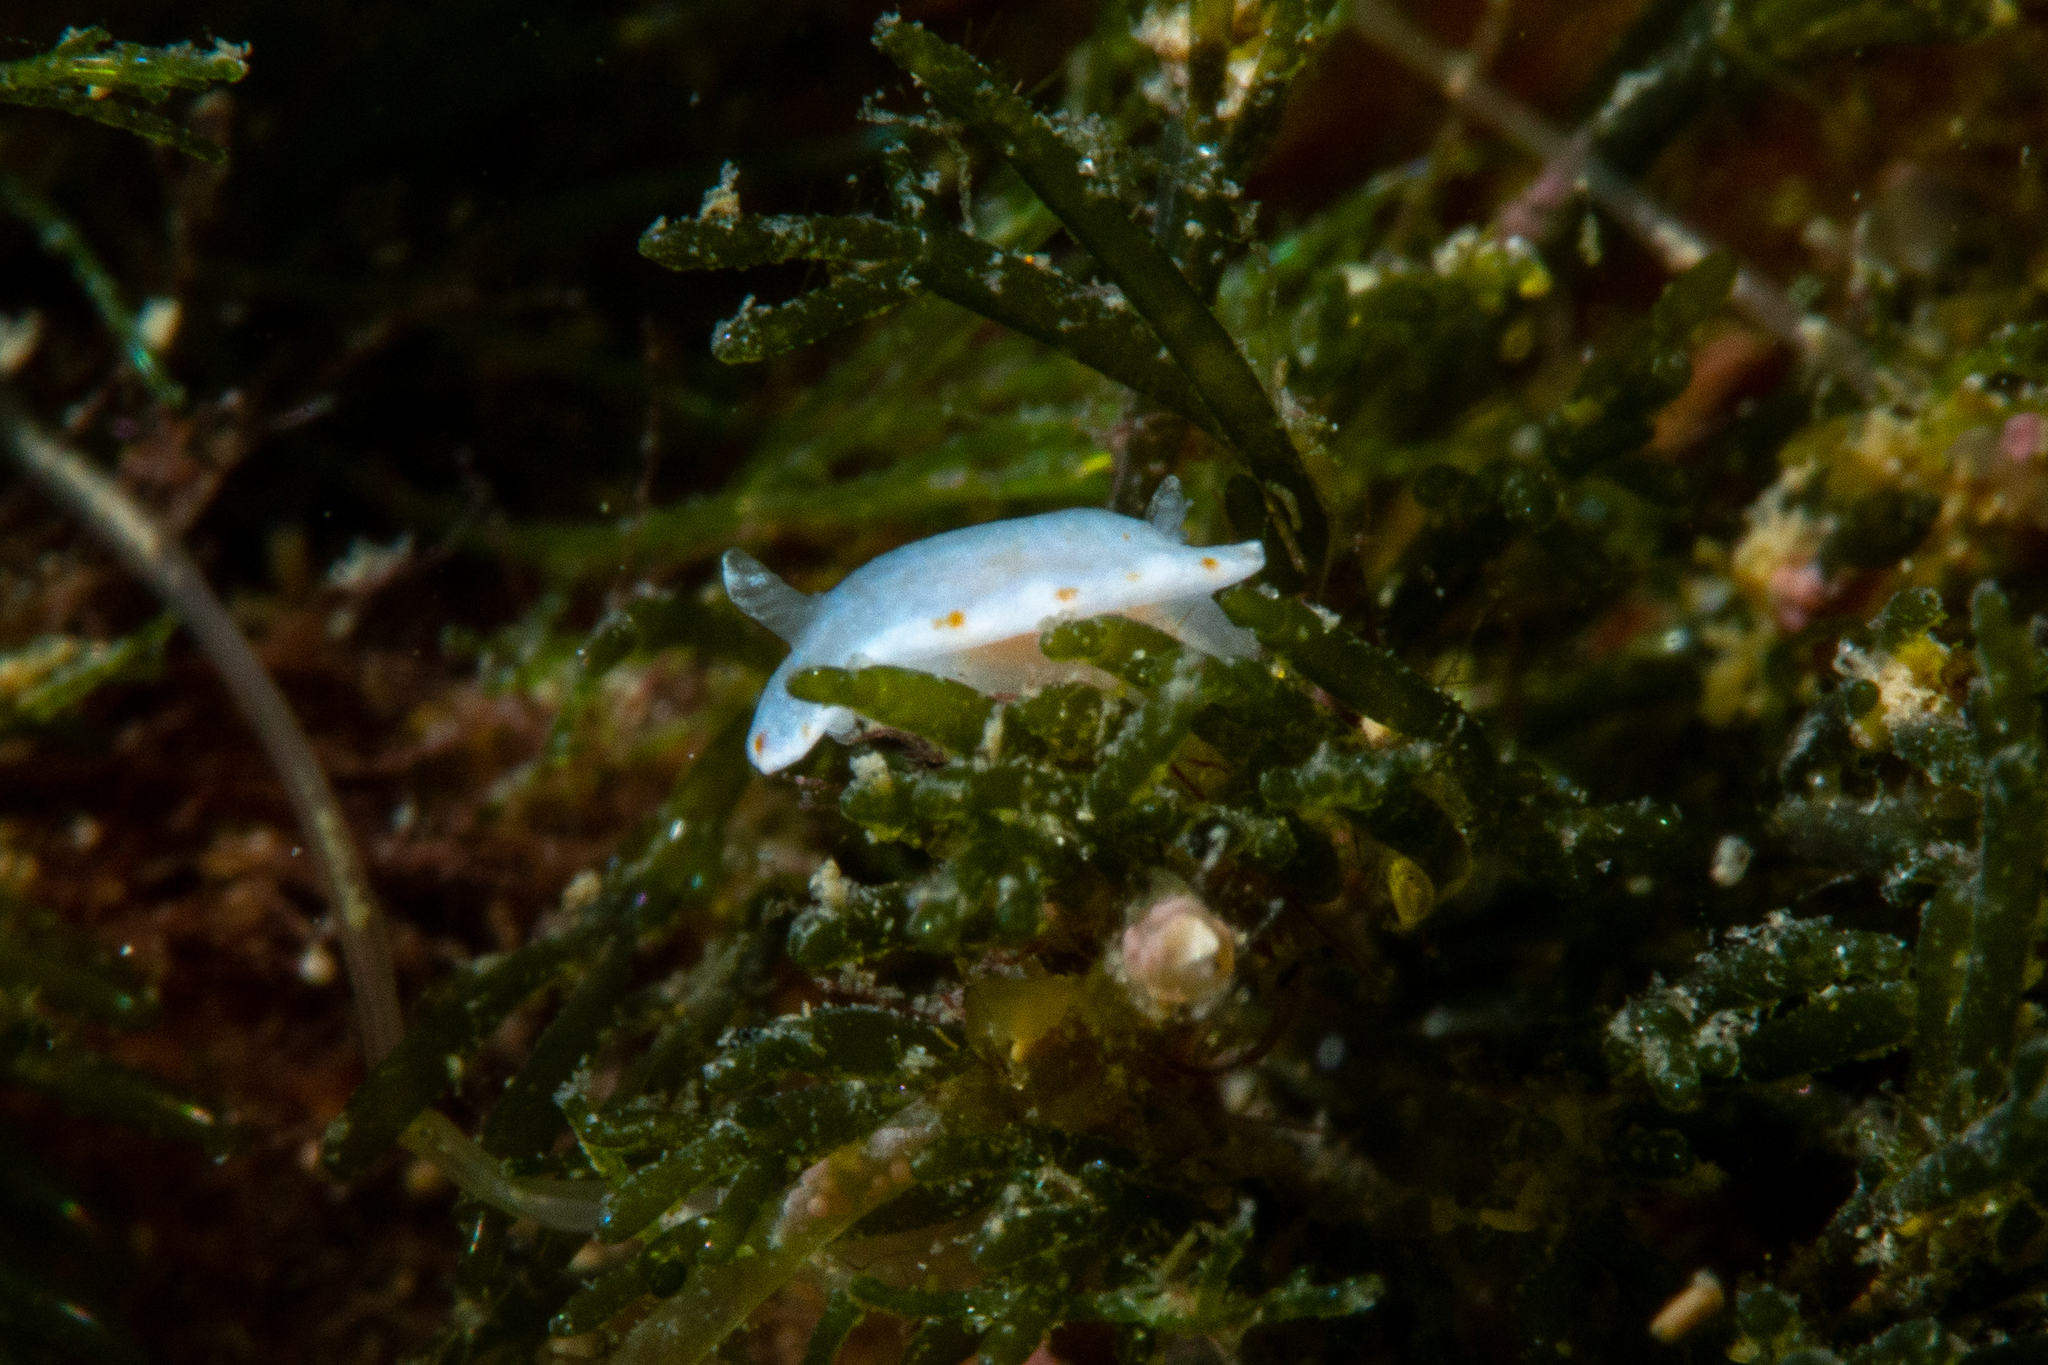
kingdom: Animalia
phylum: Mollusca
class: Gastropoda
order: Nudibranchia
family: Chromodorididae
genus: Goniobranchus
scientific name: Goniobranchus epicurius
